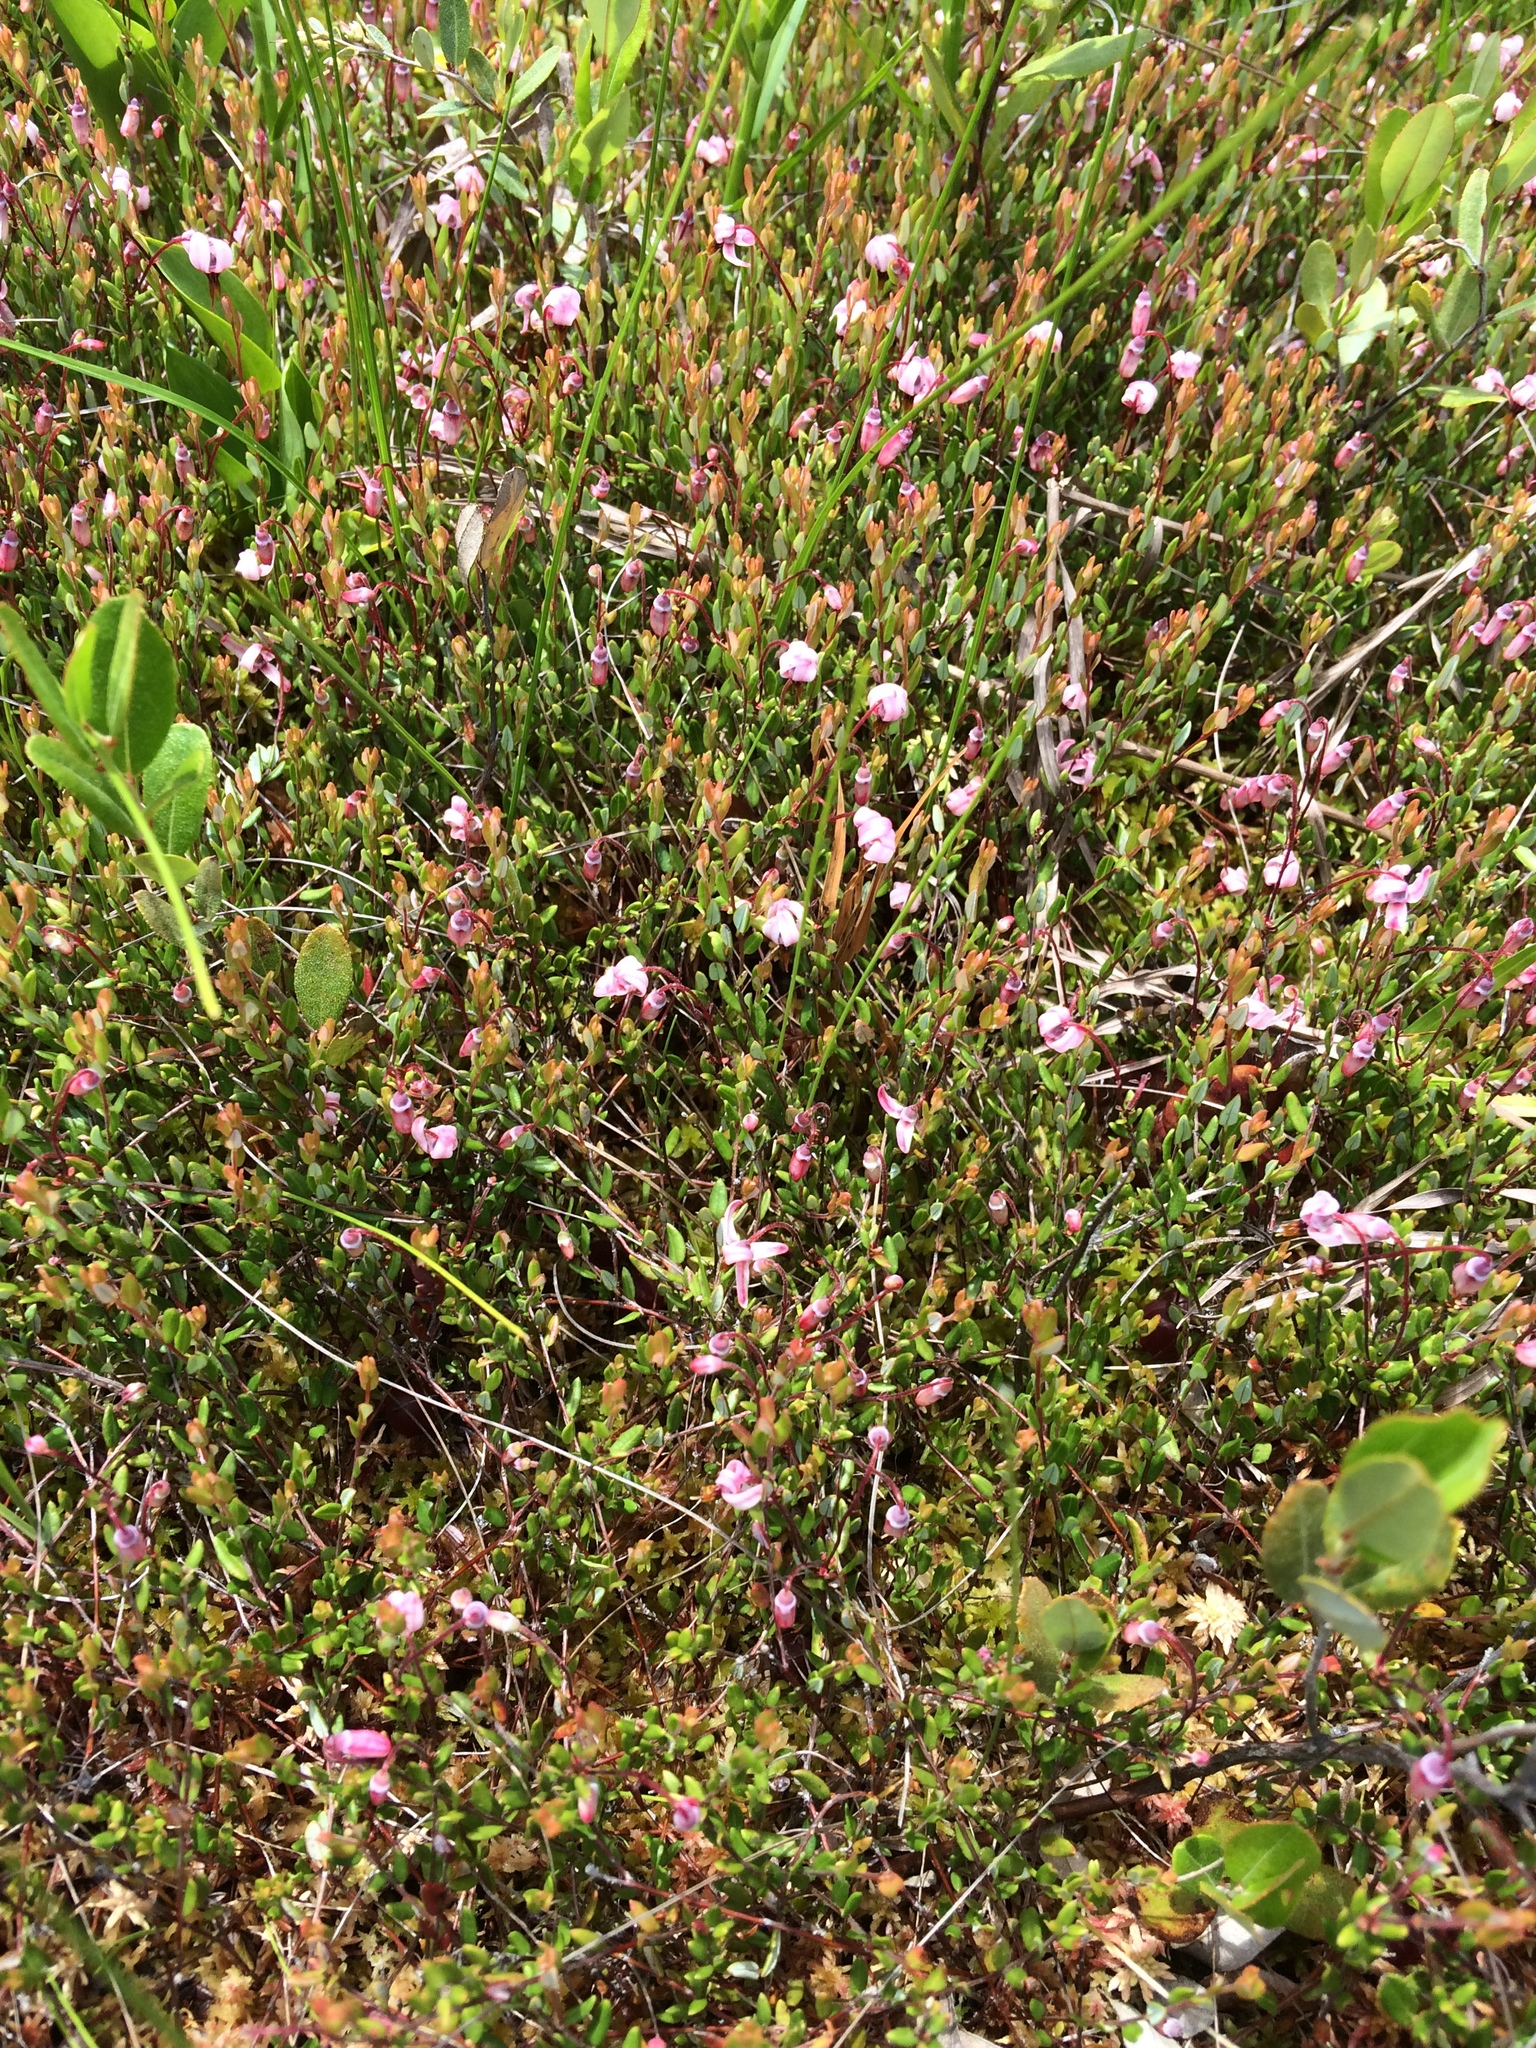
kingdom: Plantae
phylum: Tracheophyta
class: Magnoliopsida
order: Ericales
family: Ericaceae
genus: Vaccinium
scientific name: Vaccinium oxycoccos
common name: Cranberry
